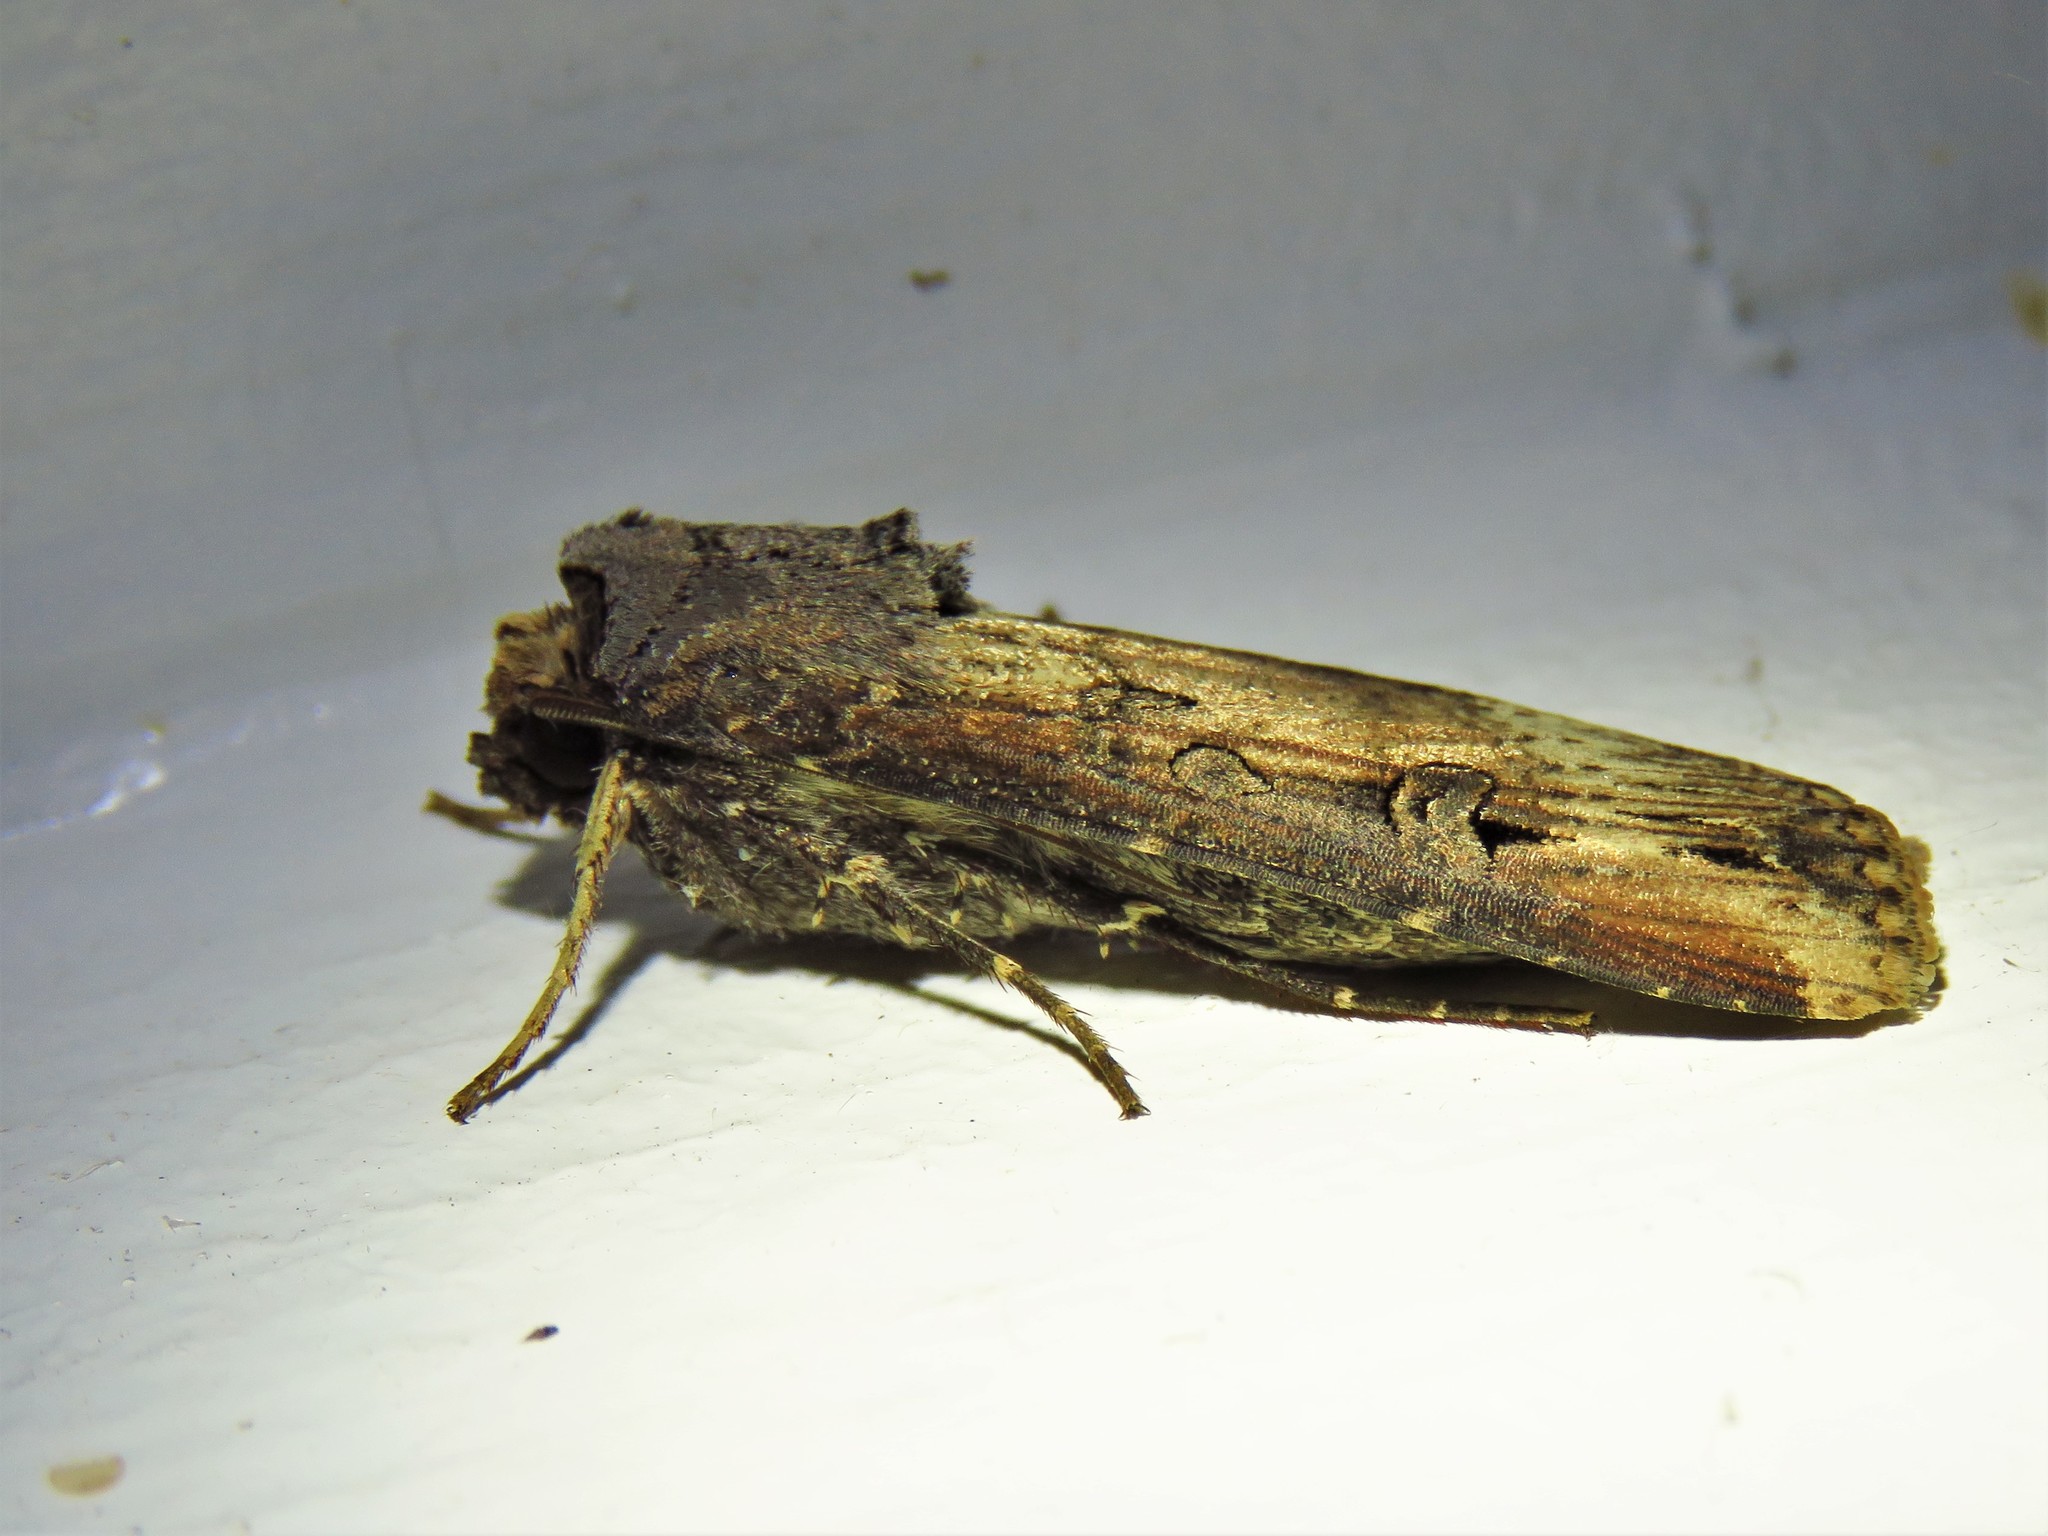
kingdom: Animalia
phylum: Arthropoda
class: Insecta
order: Lepidoptera
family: Noctuidae
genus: Agrotis
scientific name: Agrotis ipsilon
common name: Dark sword-grass
